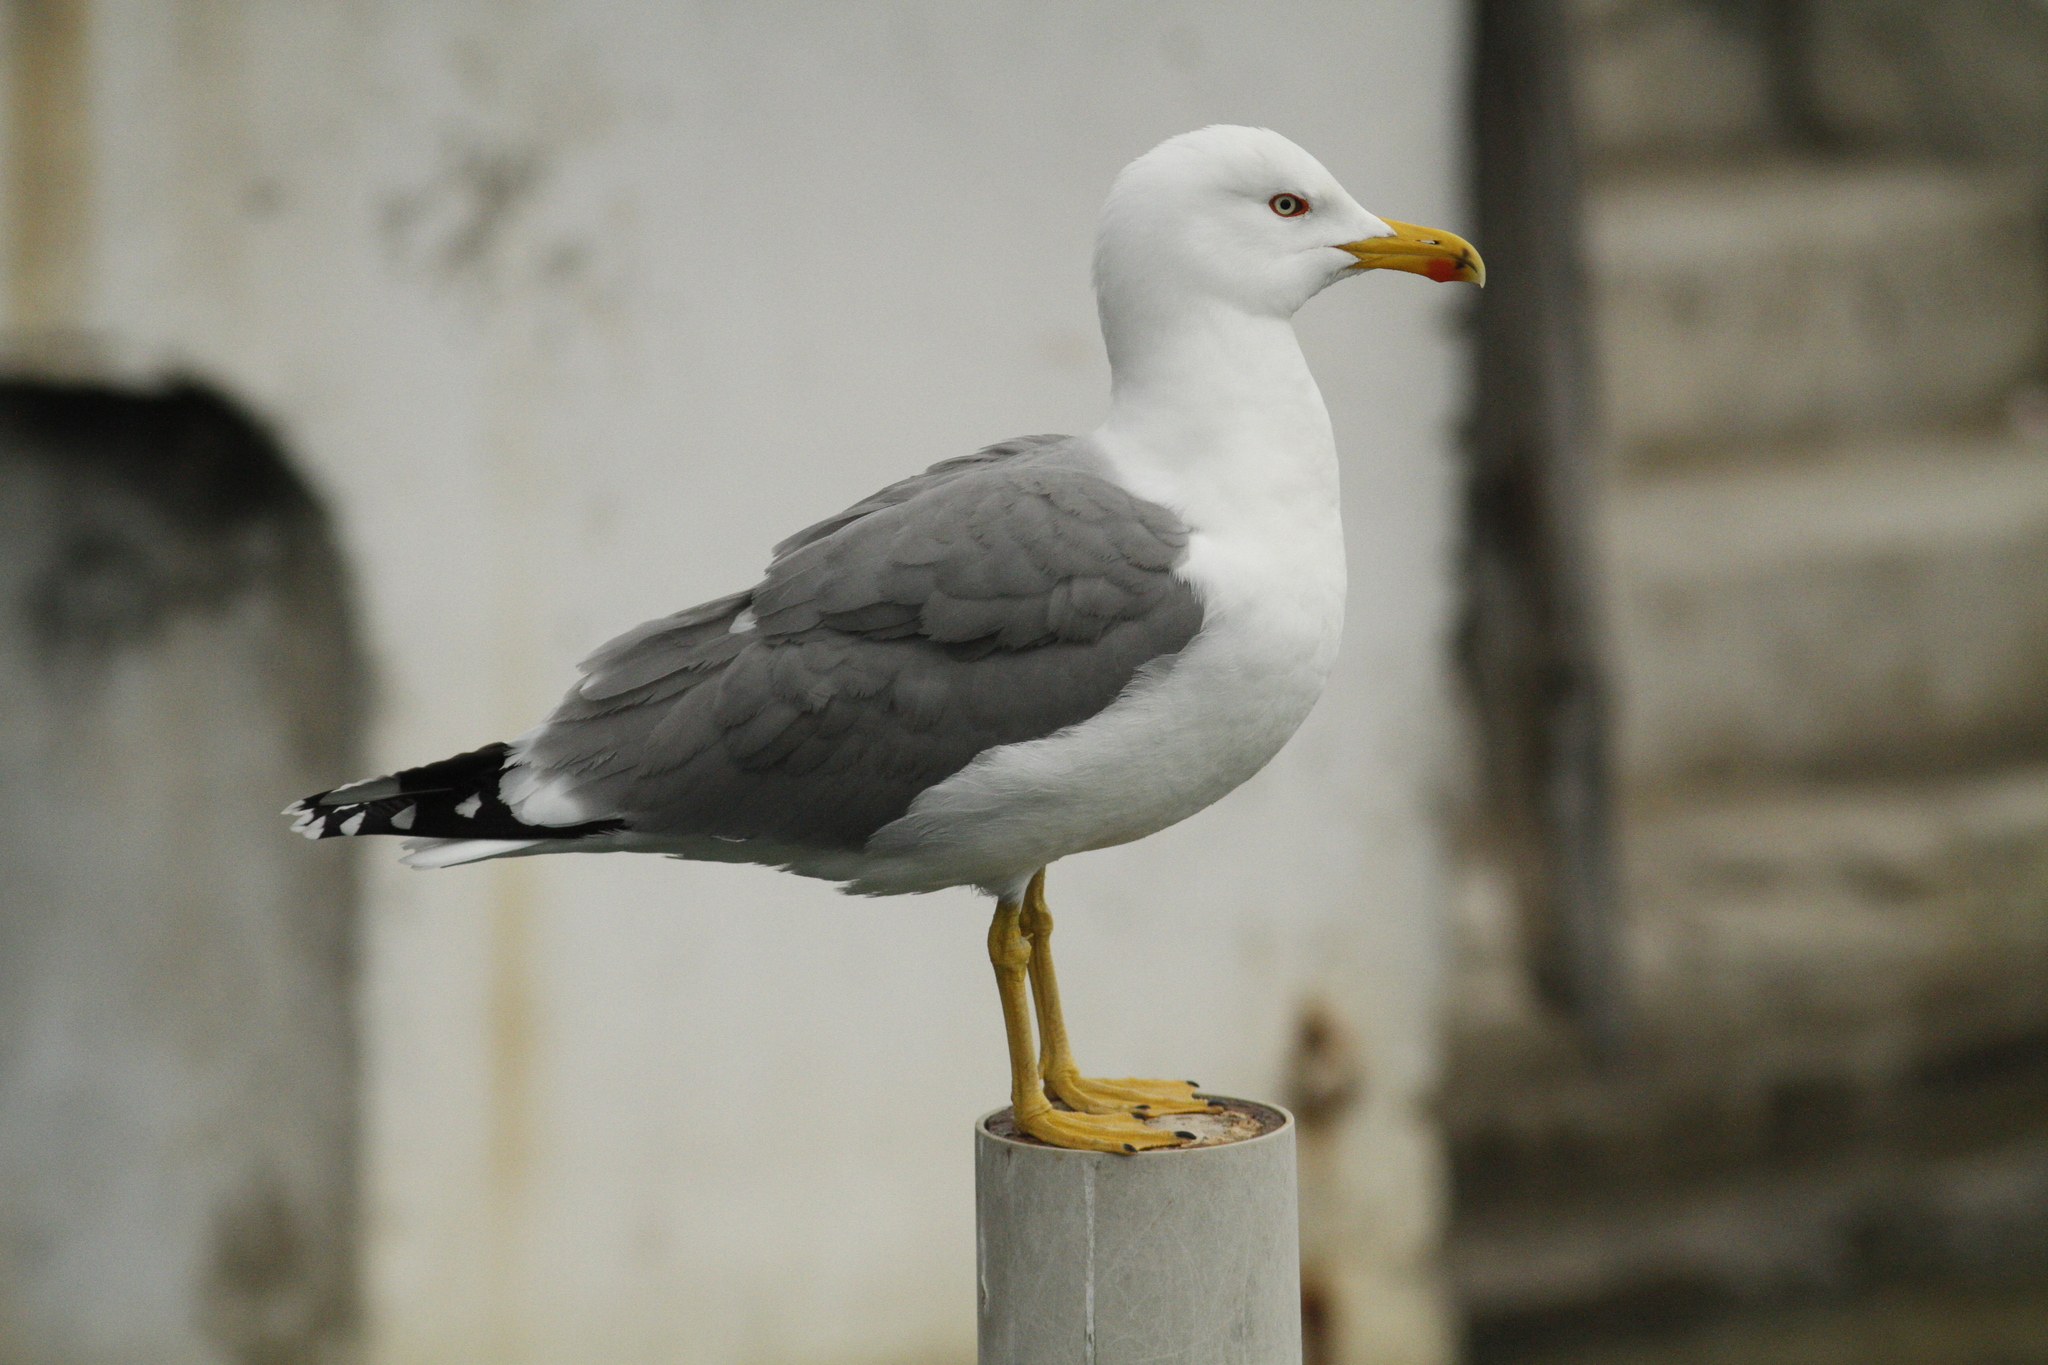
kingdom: Animalia
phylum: Chordata
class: Aves
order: Charadriiformes
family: Laridae
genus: Larus
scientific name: Larus michahellis
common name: Yellow-legged gull
